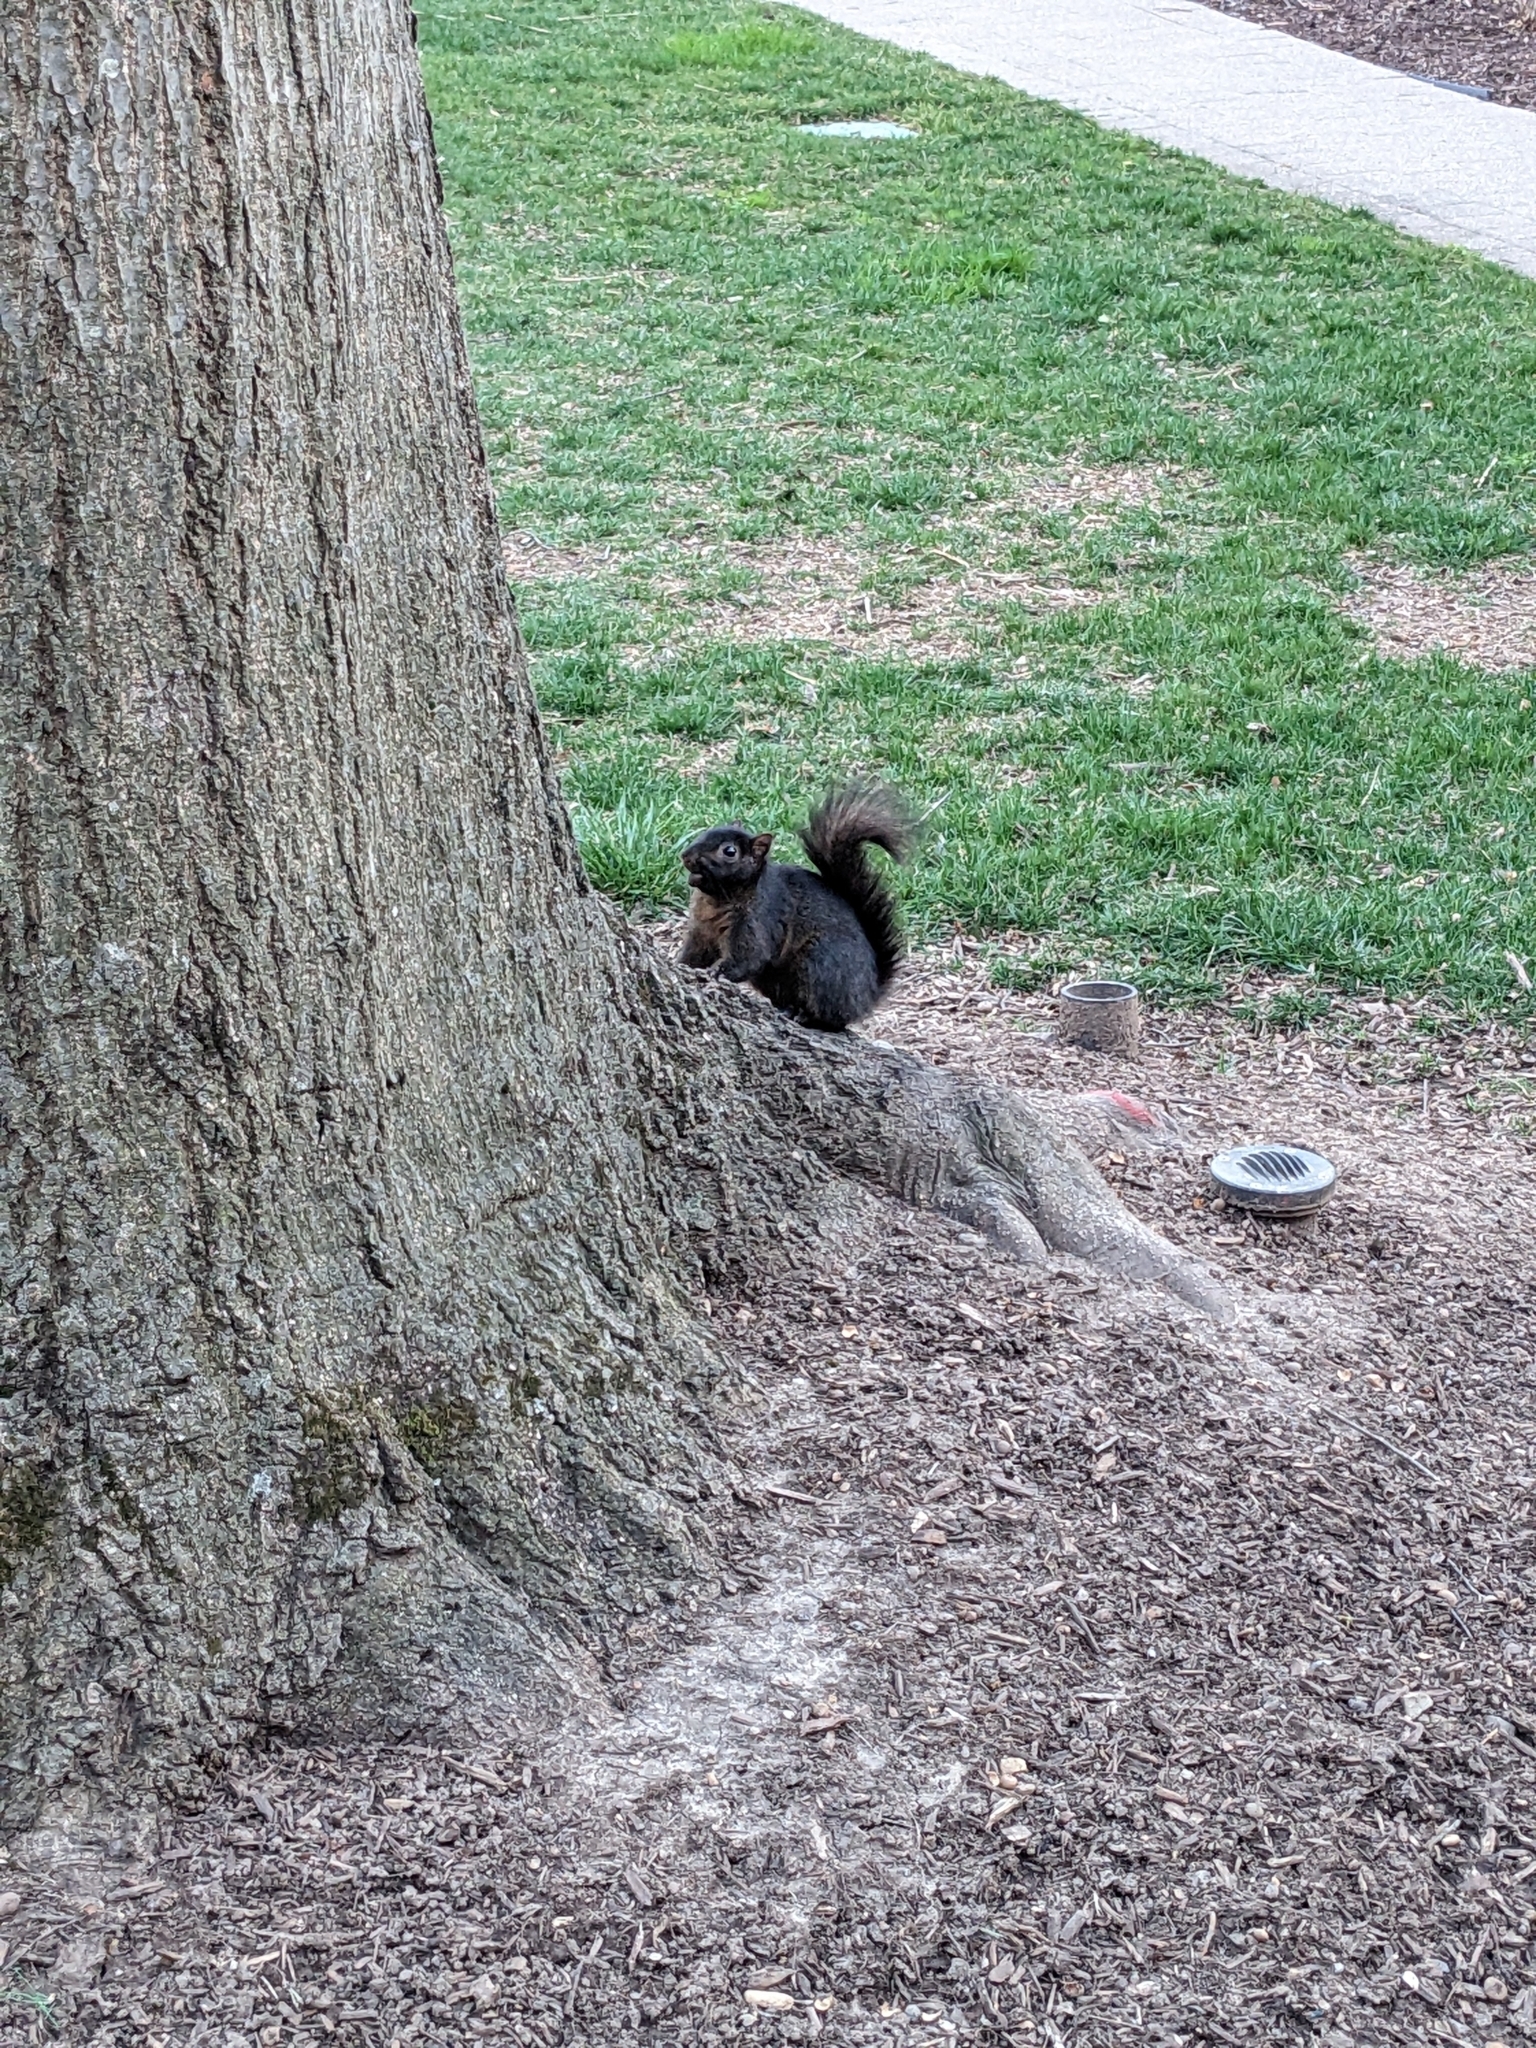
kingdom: Animalia
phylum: Chordata
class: Mammalia
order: Rodentia
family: Sciuridae
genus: Sciurus
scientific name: Sciurus carolinensis
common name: Eastern gray squirrel
